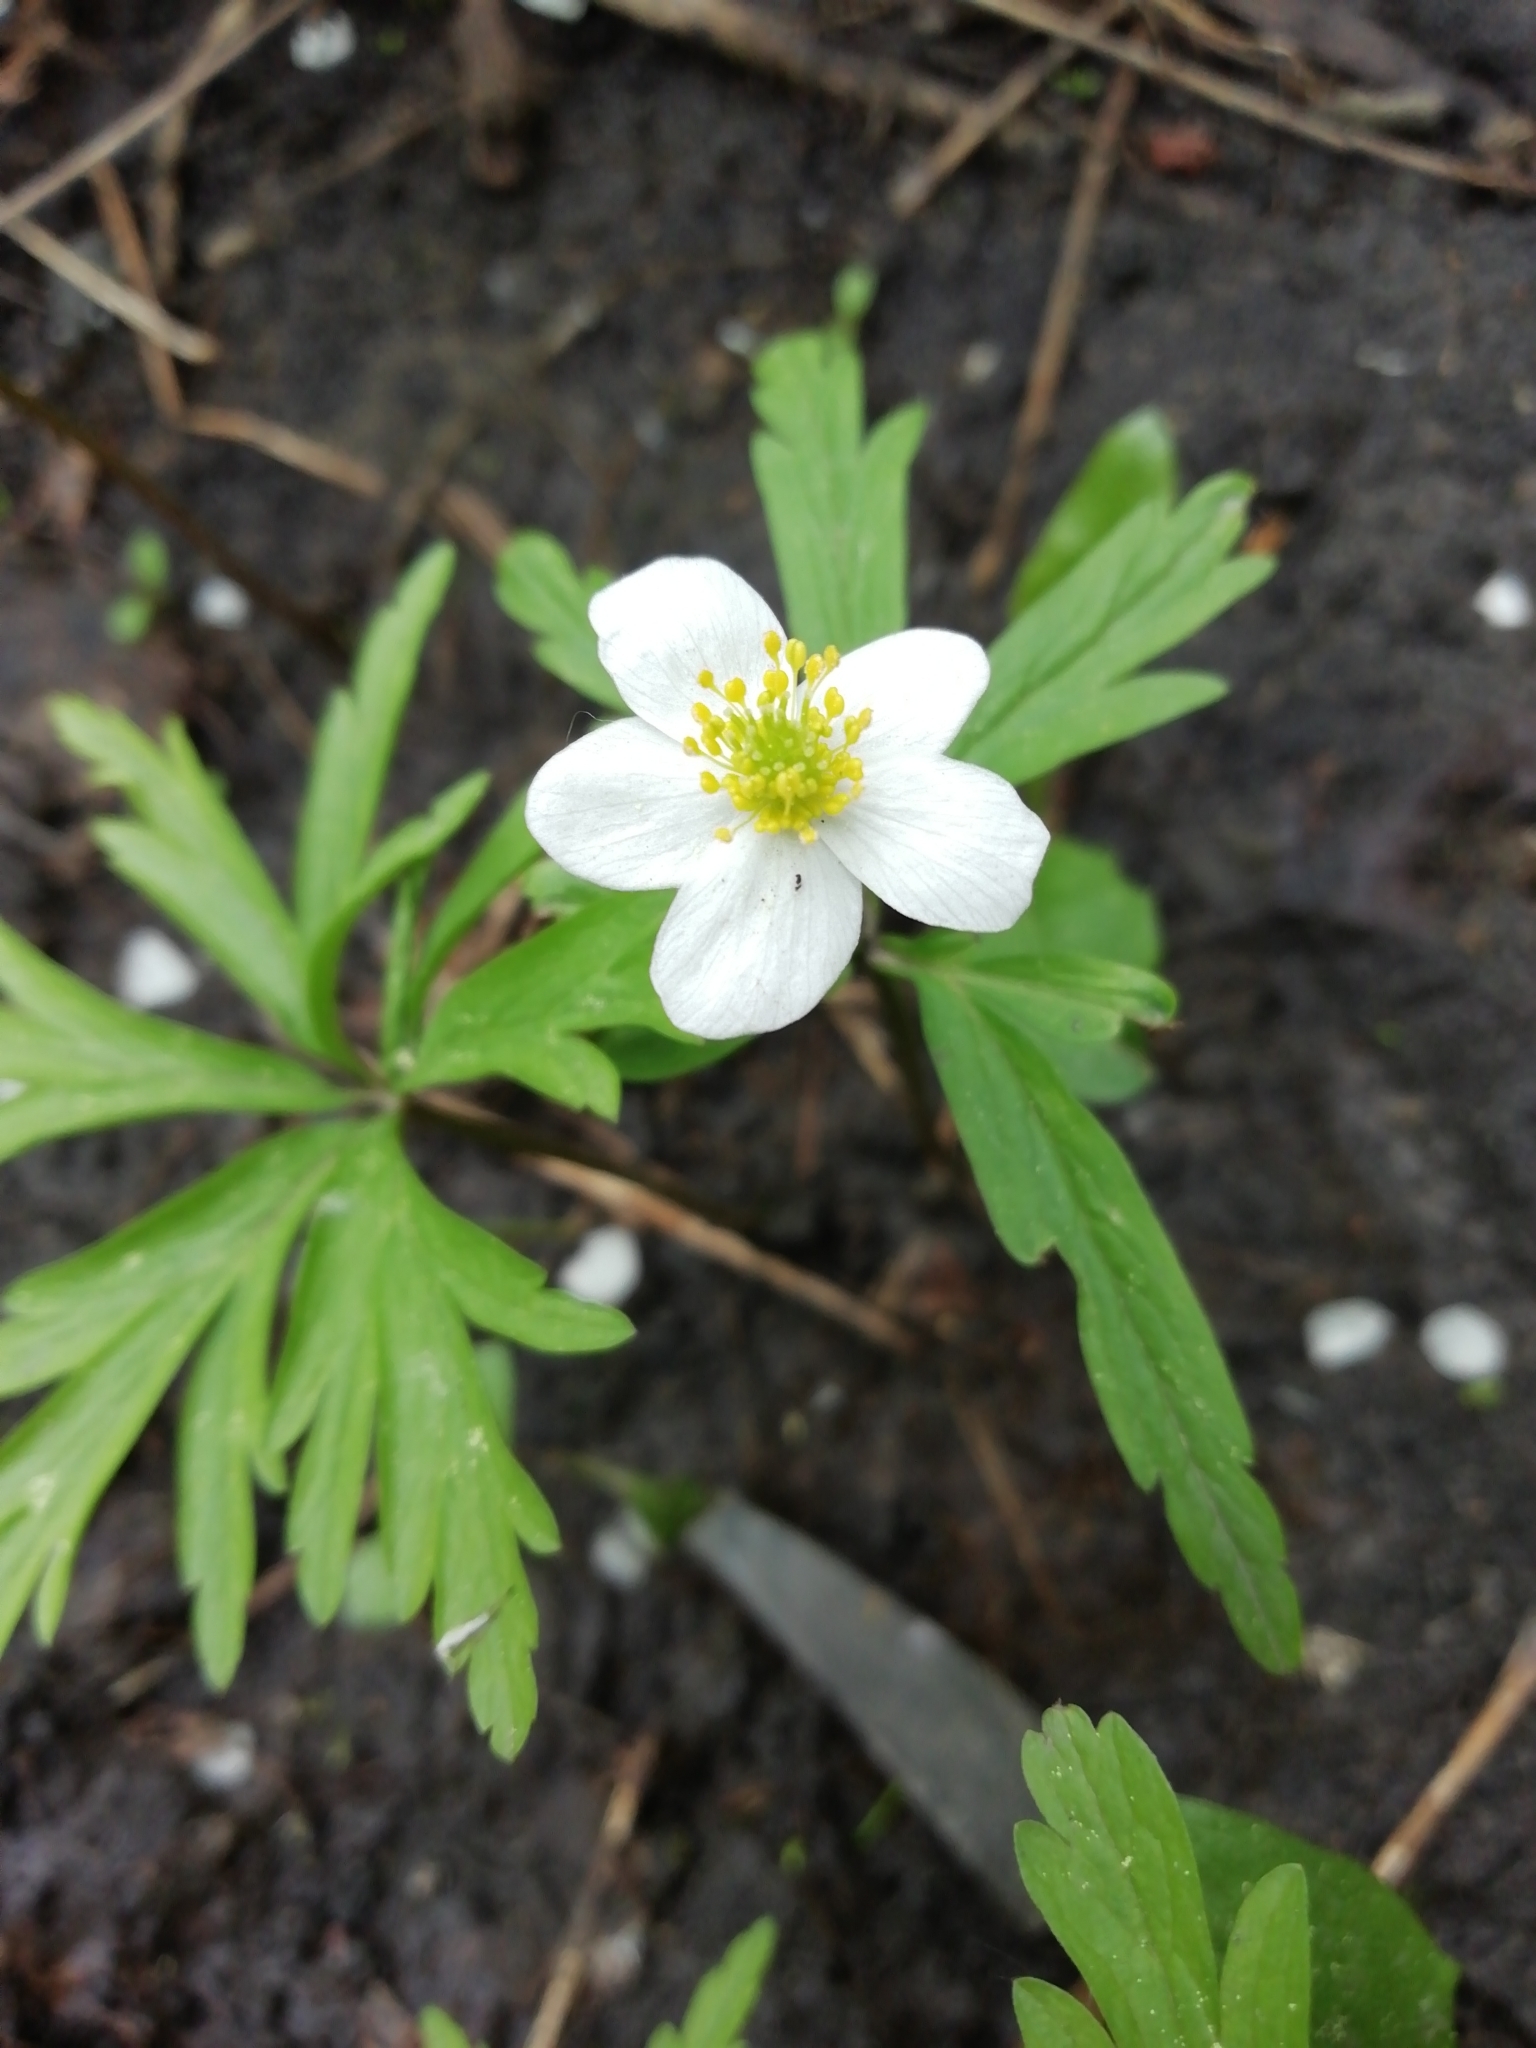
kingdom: Plantae
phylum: Tracheophyta
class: Magnoliopsida
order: Ranunculales
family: Ranunculaceae
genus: Anemone
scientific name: Anemone caerulea
